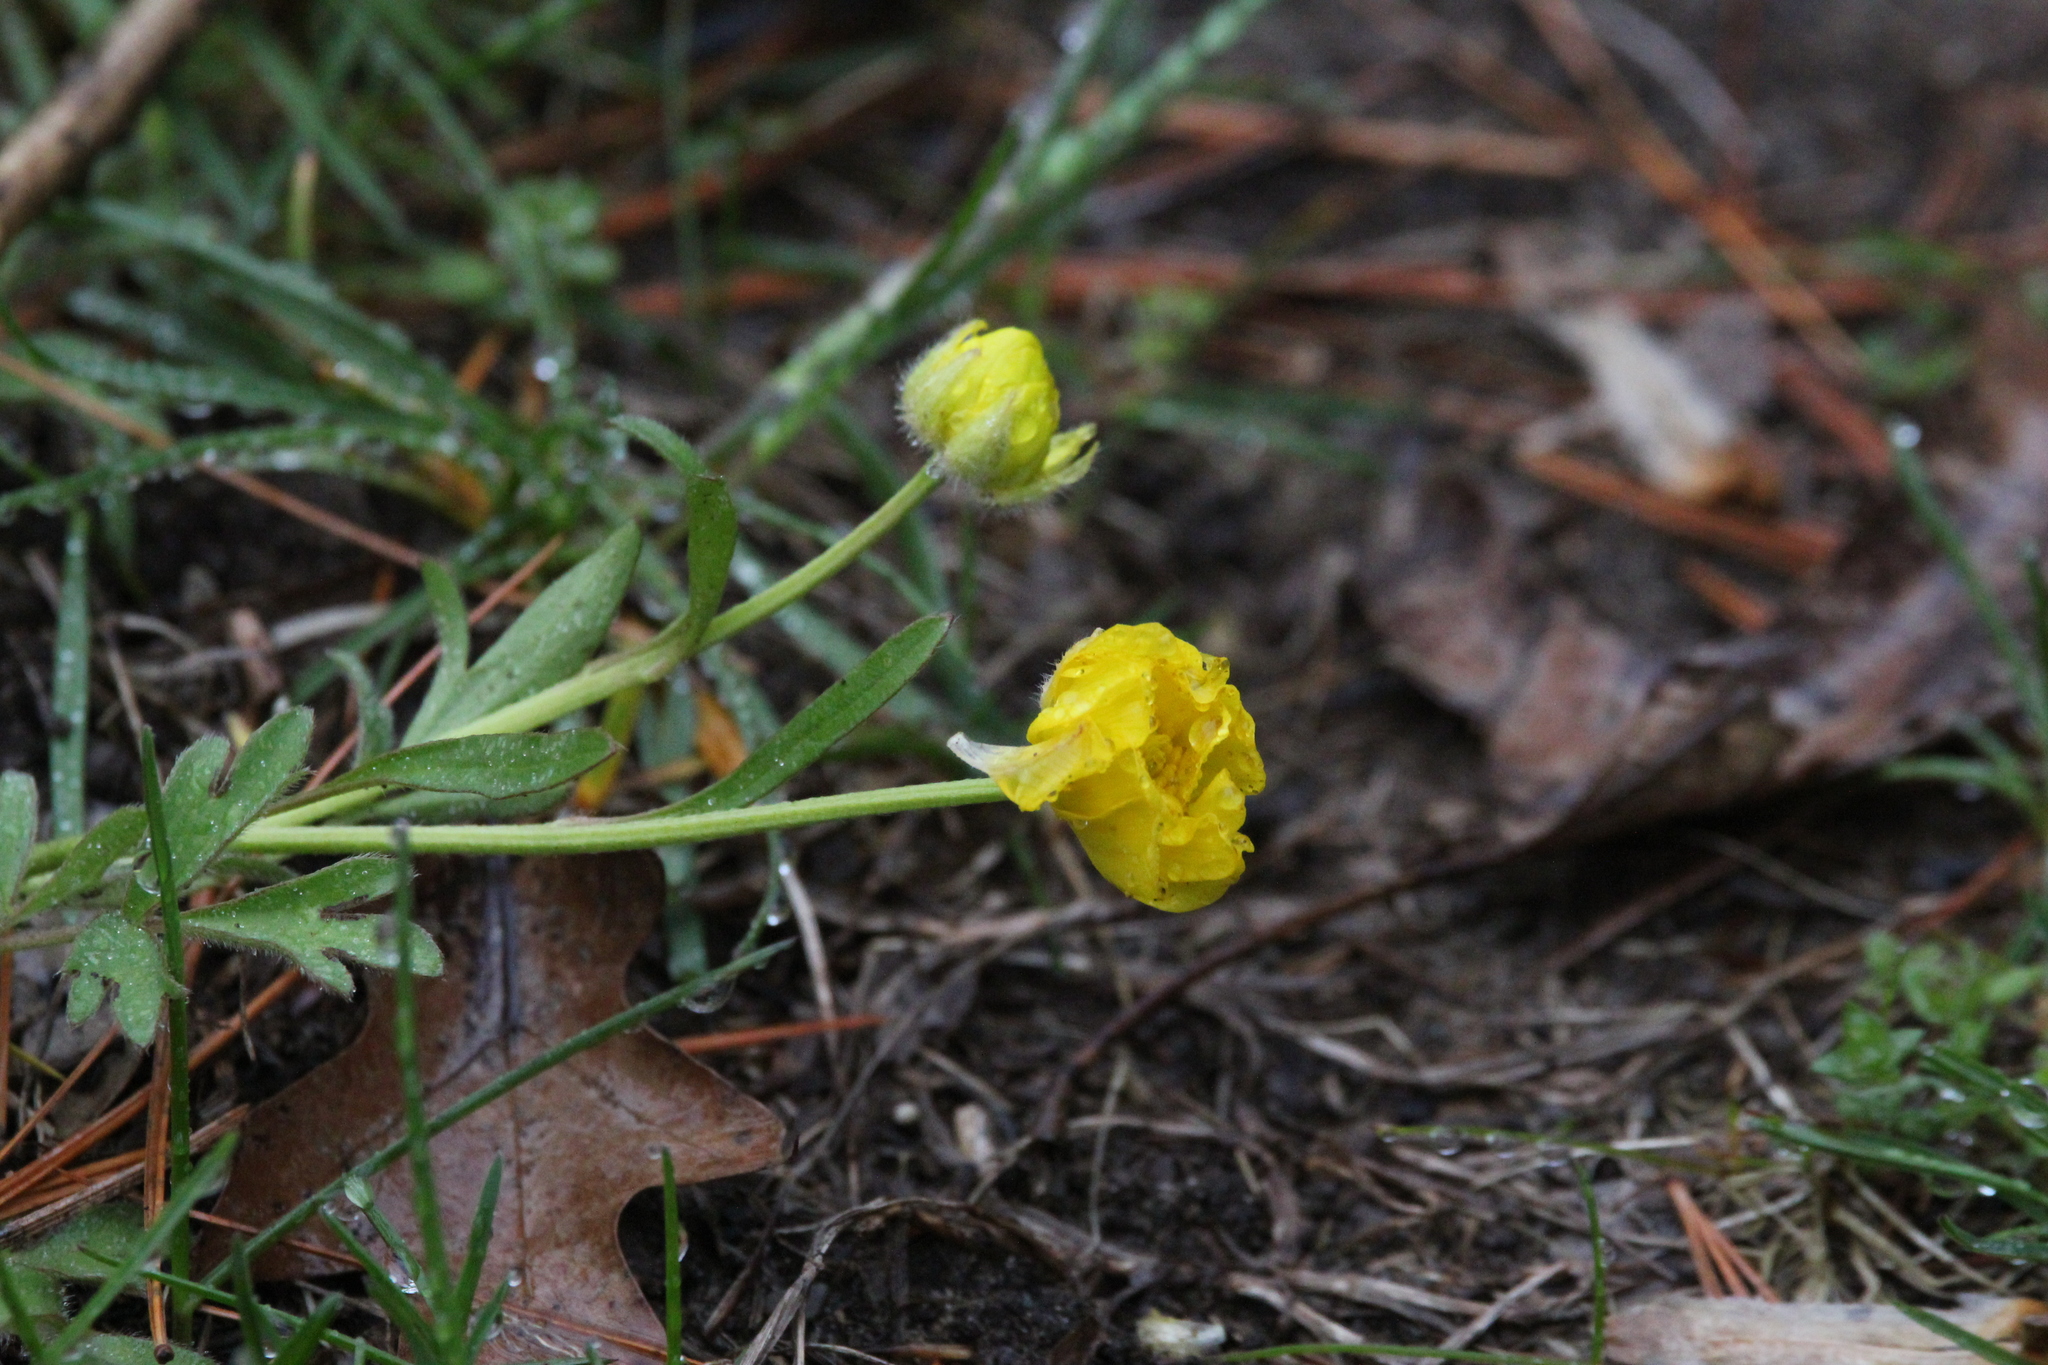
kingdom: Plantae
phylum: Tracheophyta
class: Magnoliopsida
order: Ranunculales
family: Ranunculaceae
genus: Ranunculus
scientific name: Ranunculus fascicularis
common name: Early buttercup
